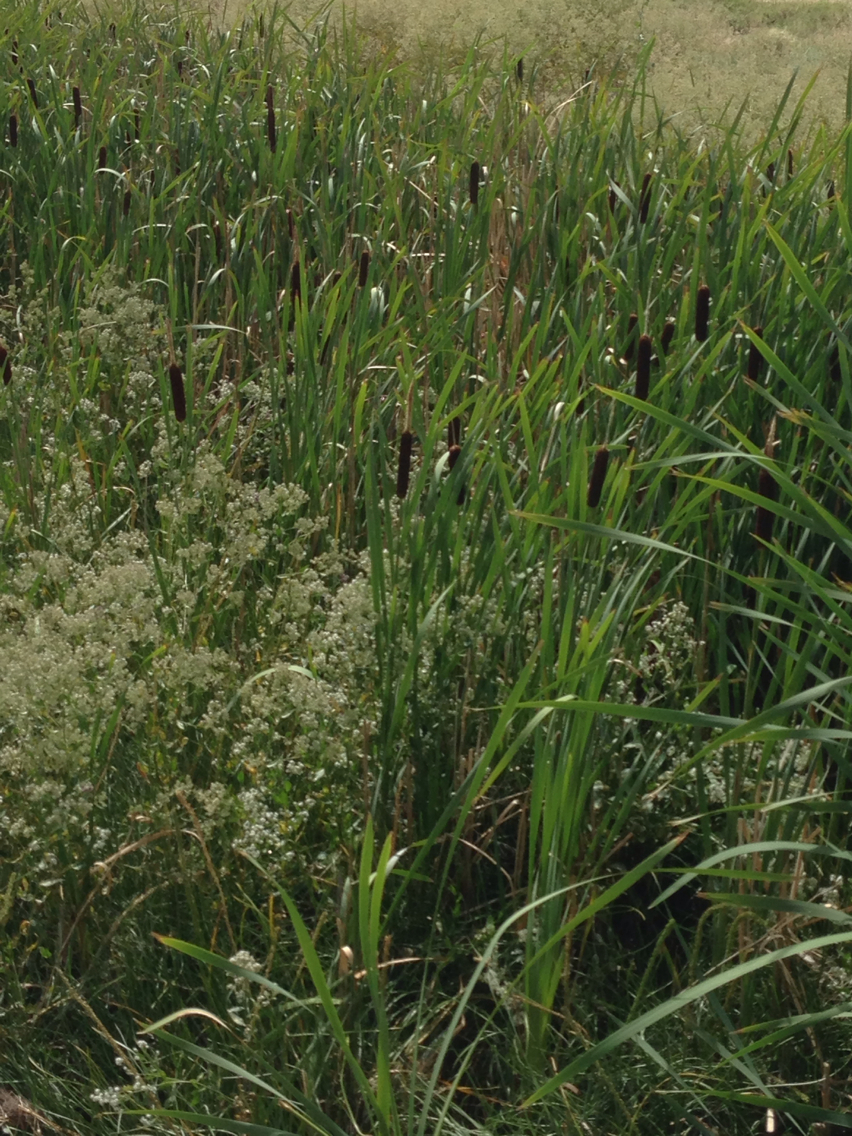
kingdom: Plantae
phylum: Tracheophyta
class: Liliopsida
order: Poales
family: Typhaceae
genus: Typha
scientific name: Typha latifolia
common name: Broadleaf cattail
